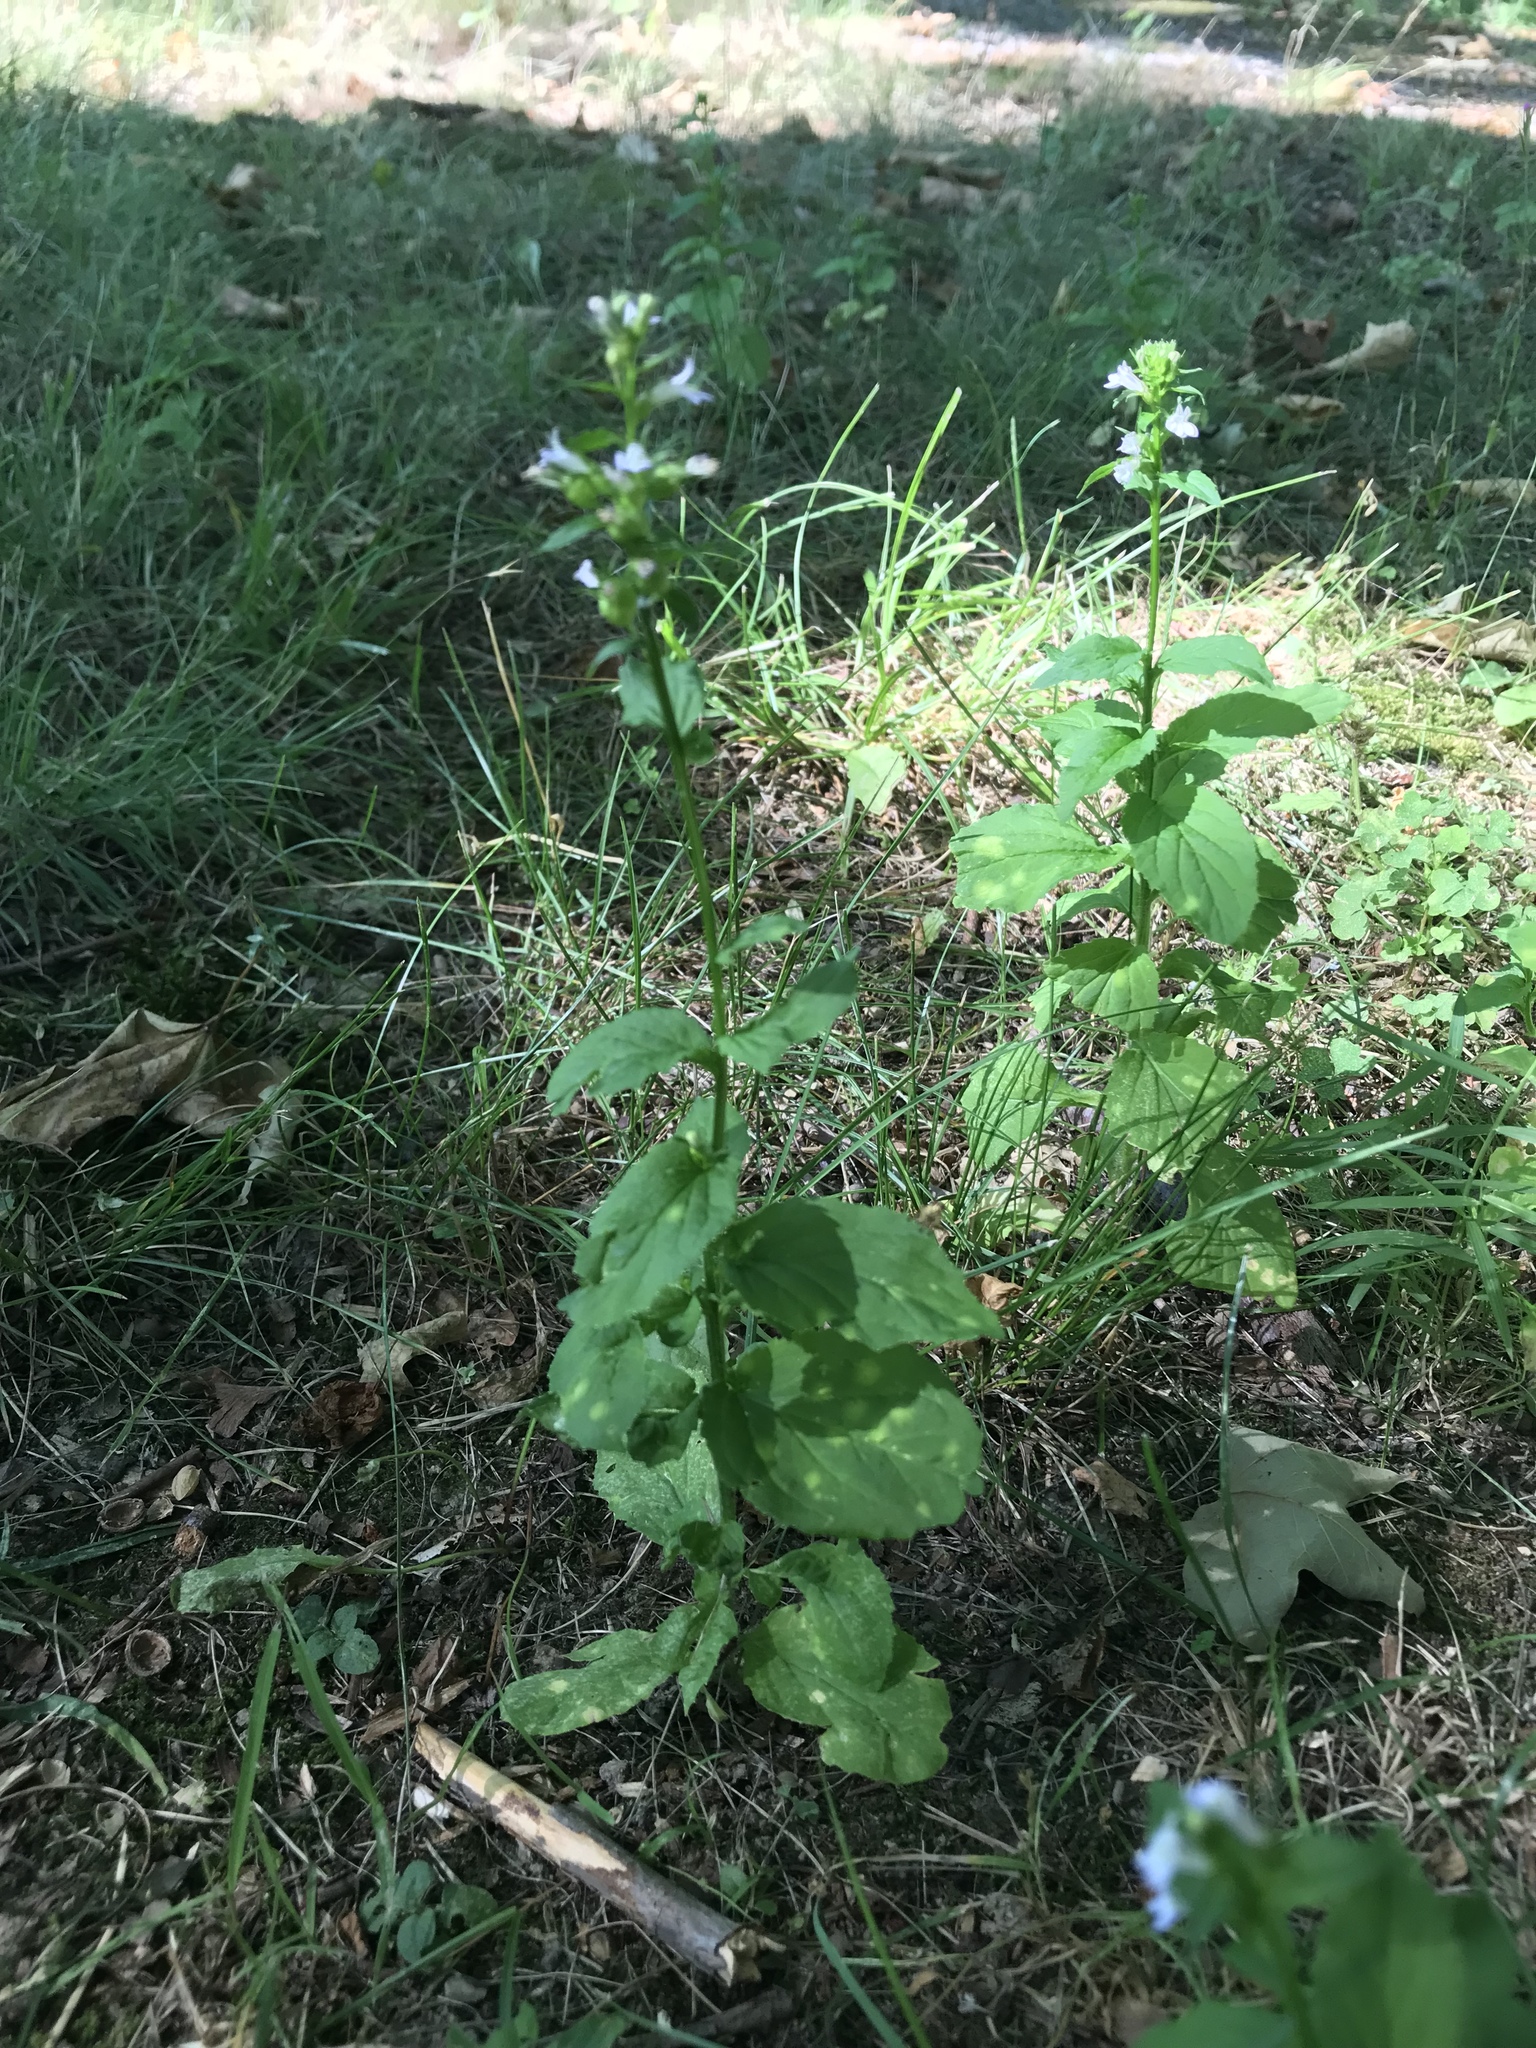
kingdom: Plantae
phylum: Tracheophyta
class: Magnoliopsida
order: Asterales
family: Campanulaceae
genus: Lobelia
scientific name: Lobelia inflata
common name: Indian tobacco
